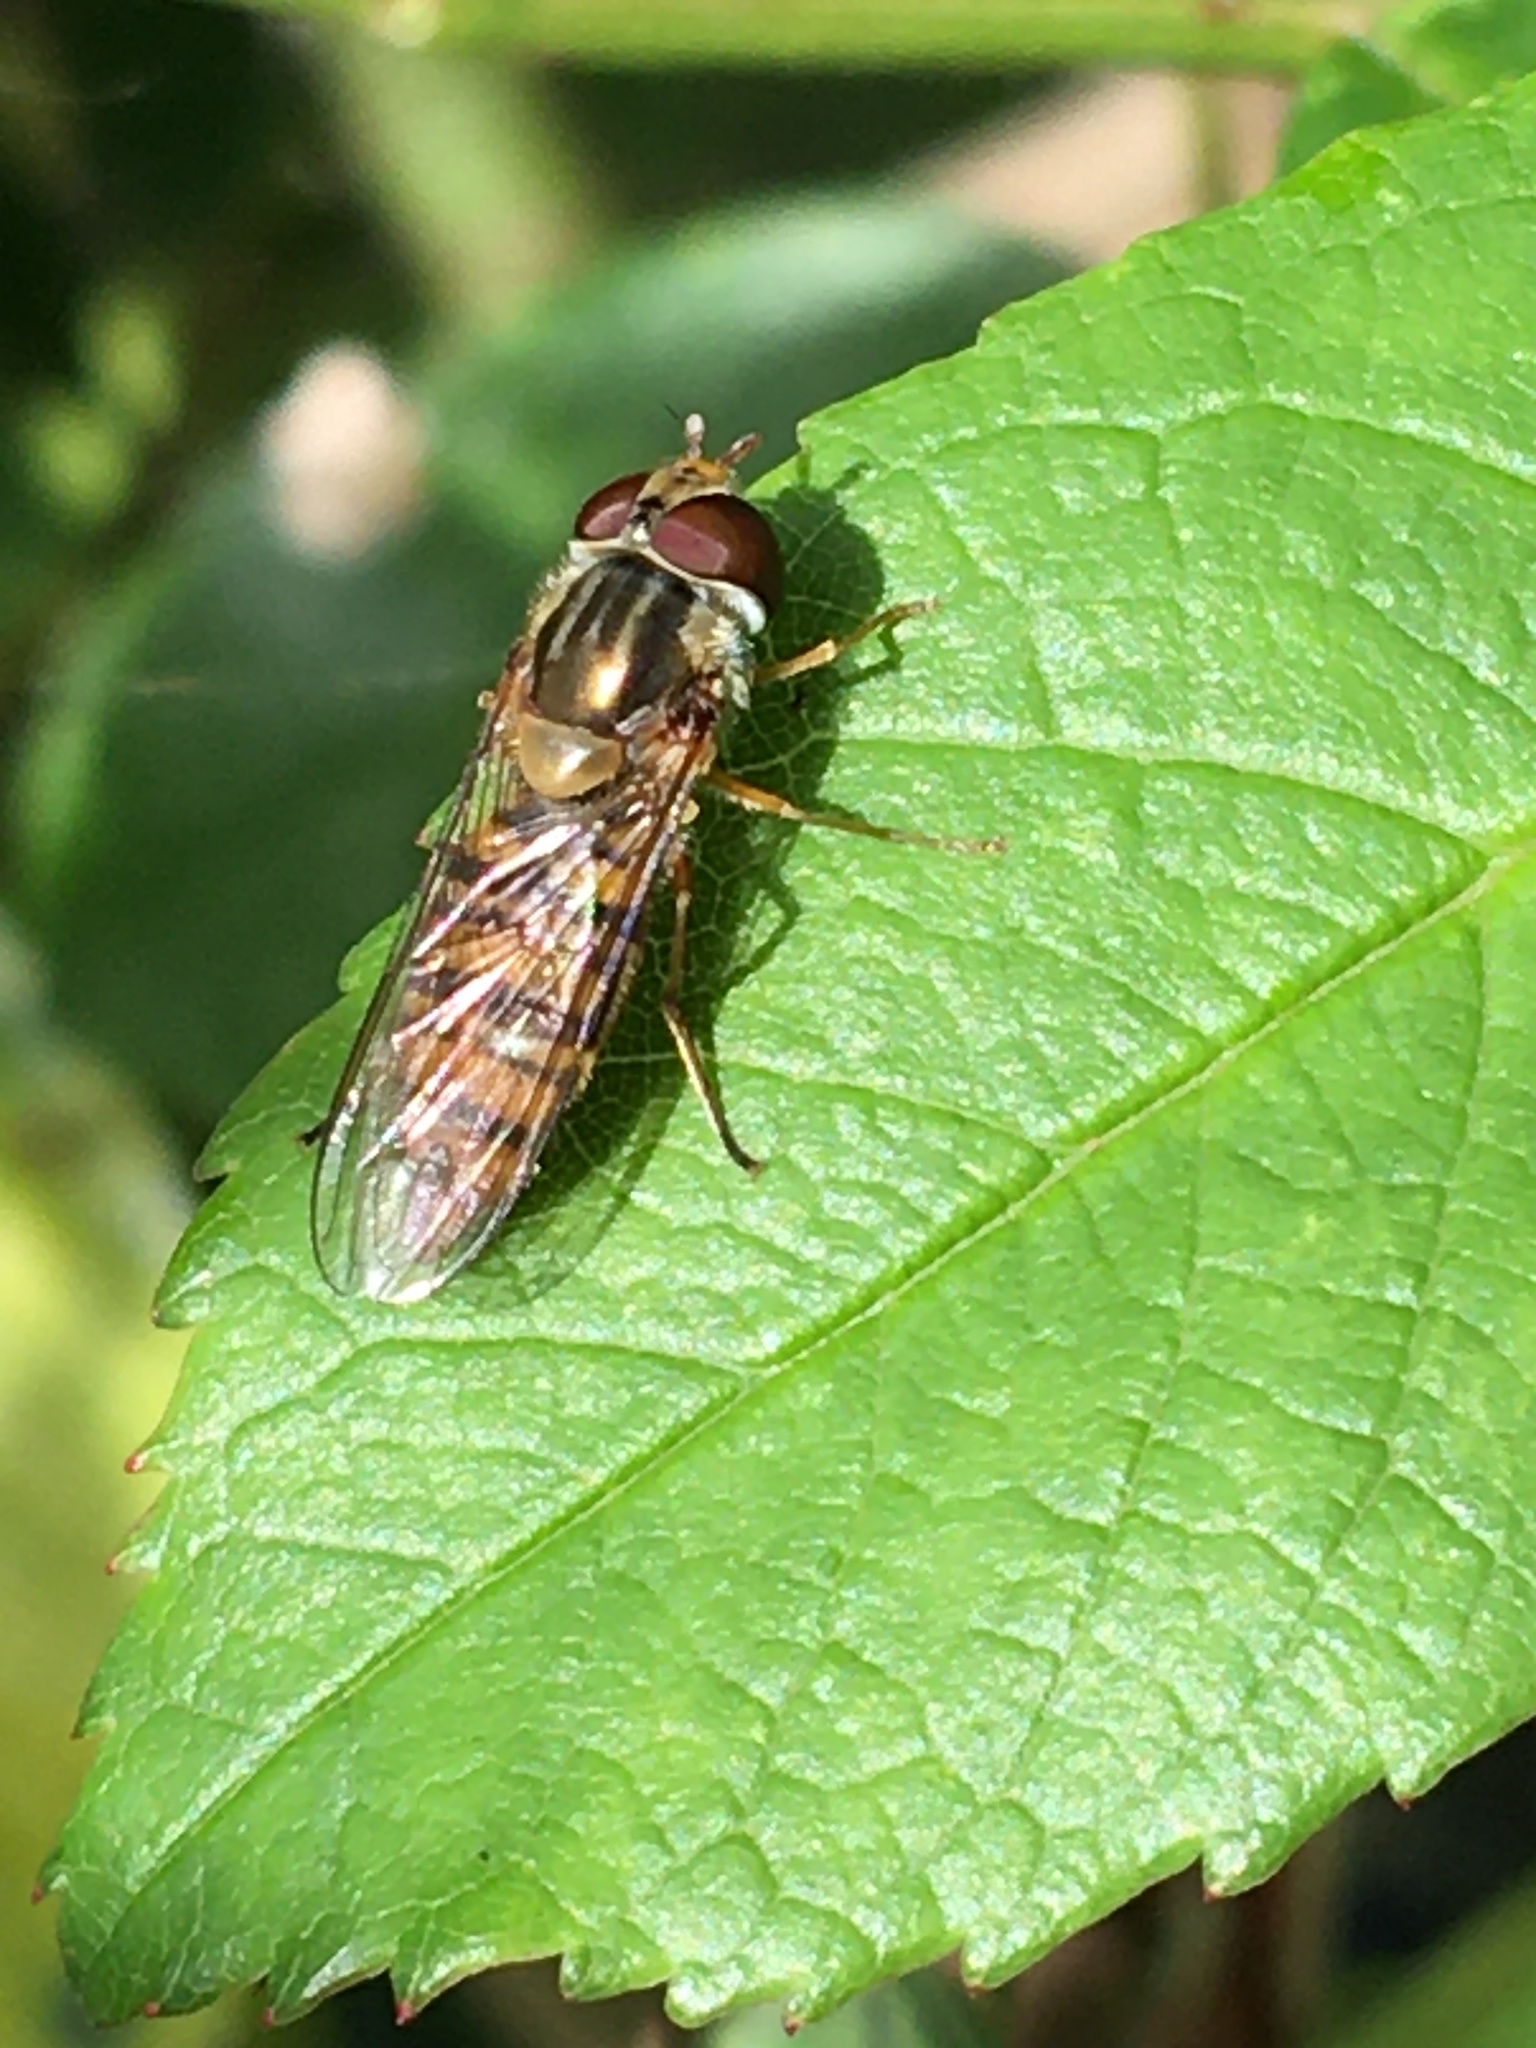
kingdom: Animalia
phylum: Arthropoda
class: Insecta
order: Diptera
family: Syrphidae
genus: Episyrphus
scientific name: Episyrphus balteatus
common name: Marmalade hoverfly
